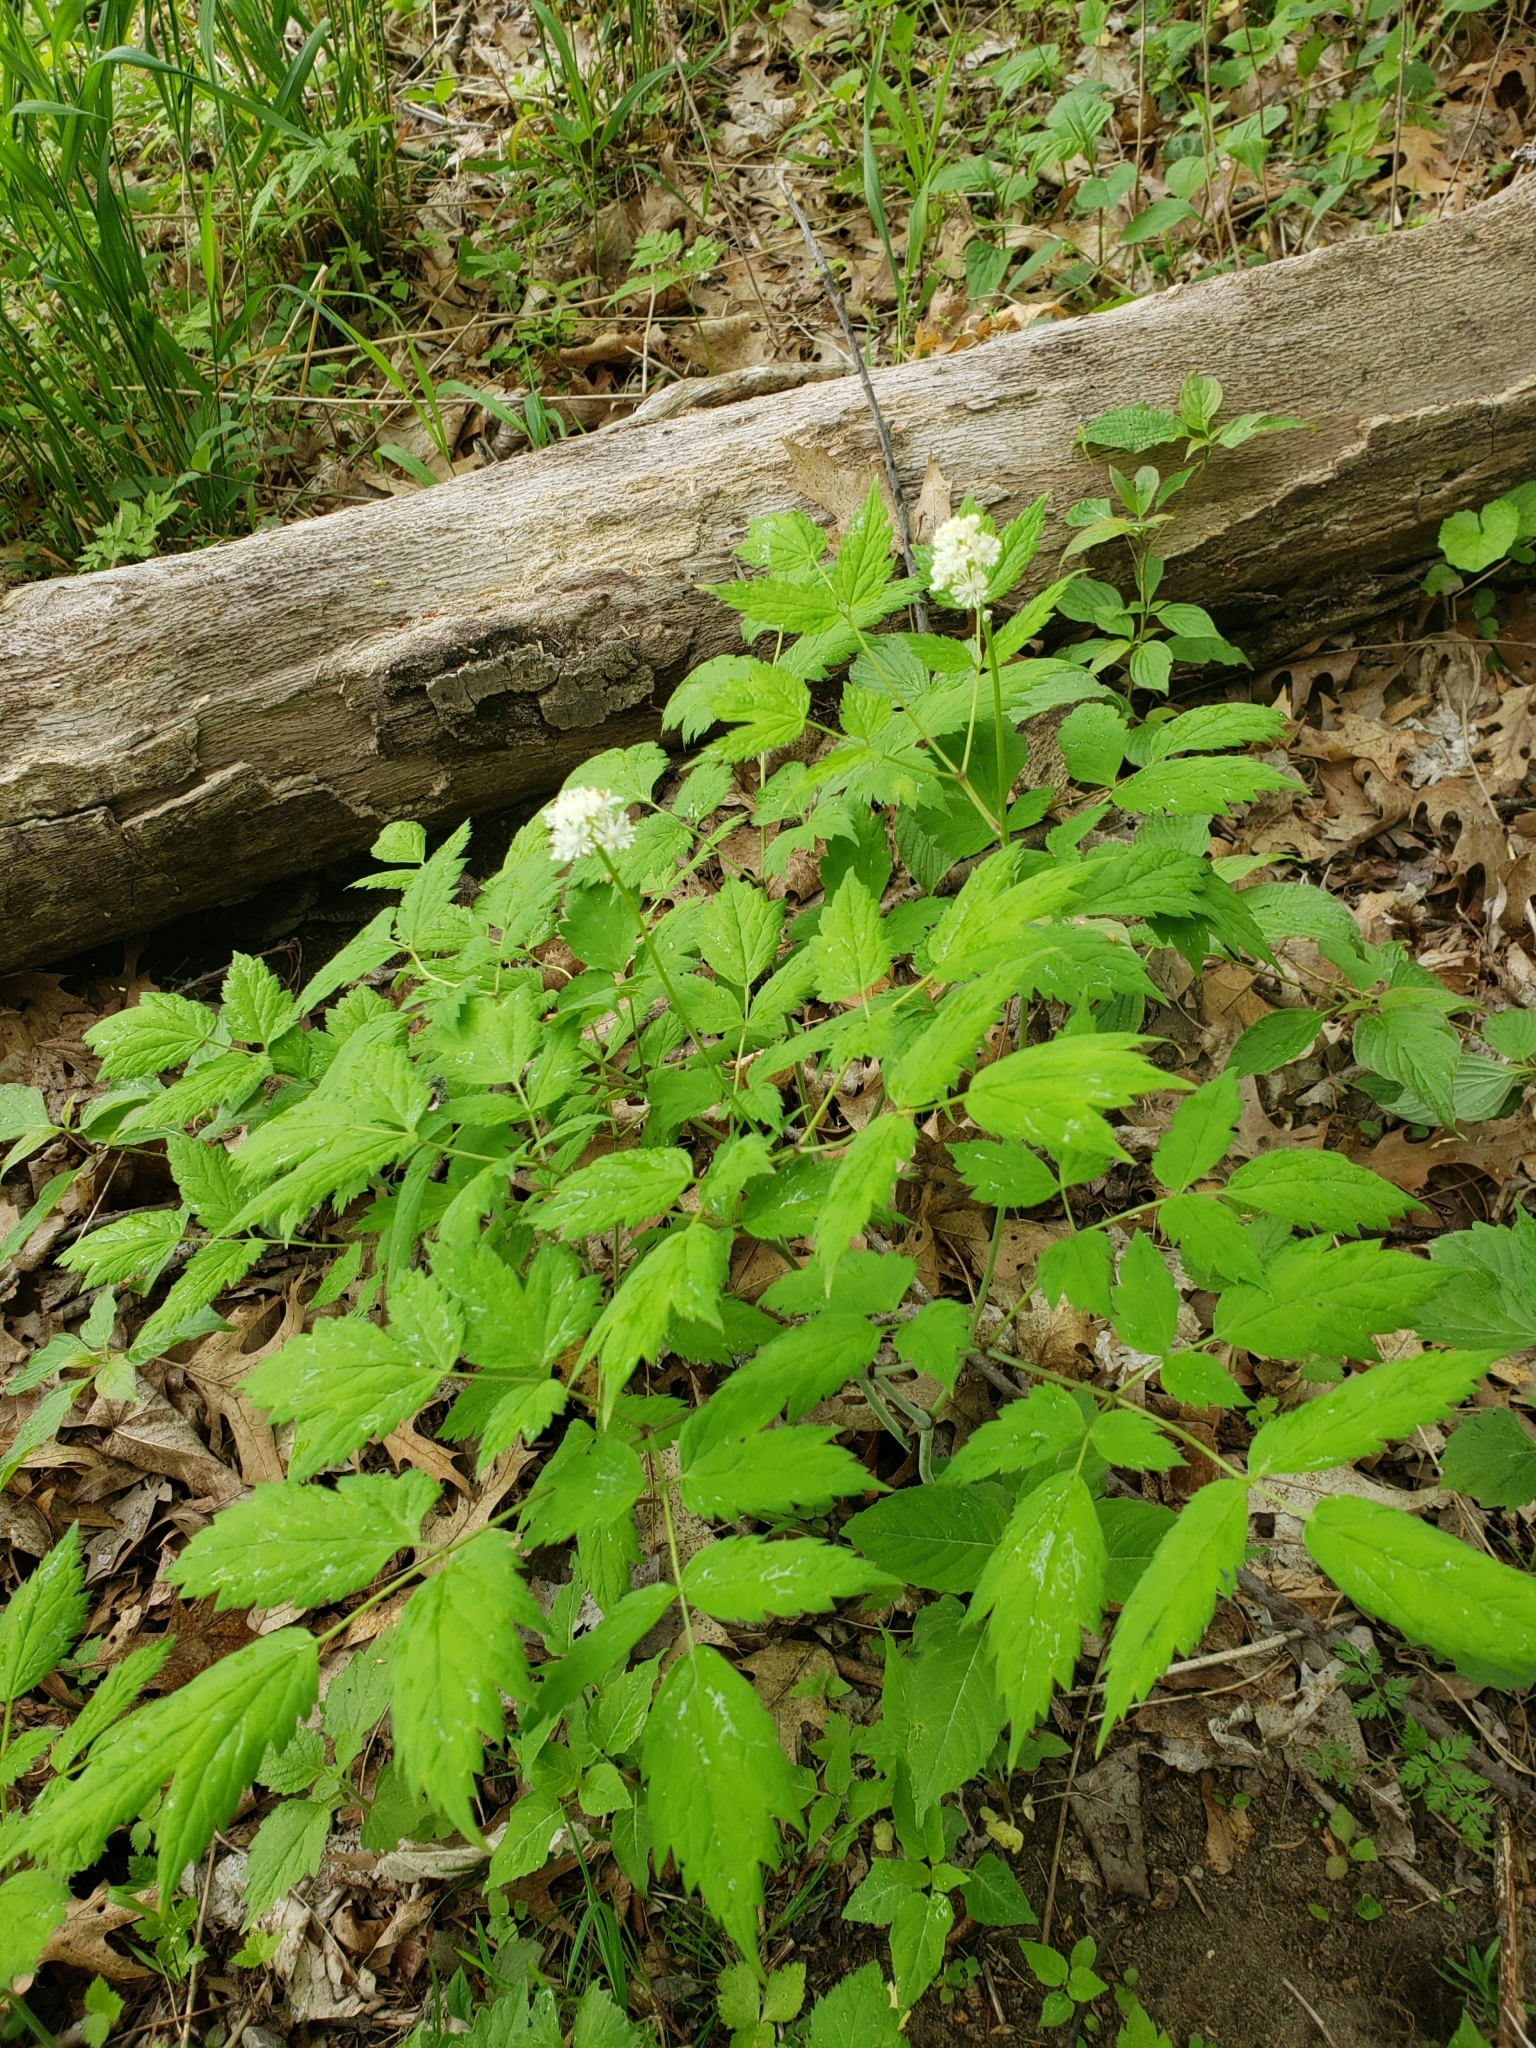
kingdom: Plantae
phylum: Tracheophyta
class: Magnoliopsida
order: Ranunculales
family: Ranunculaceae
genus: Actaea
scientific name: Actaea pachypoda
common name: Doll's-eyes
